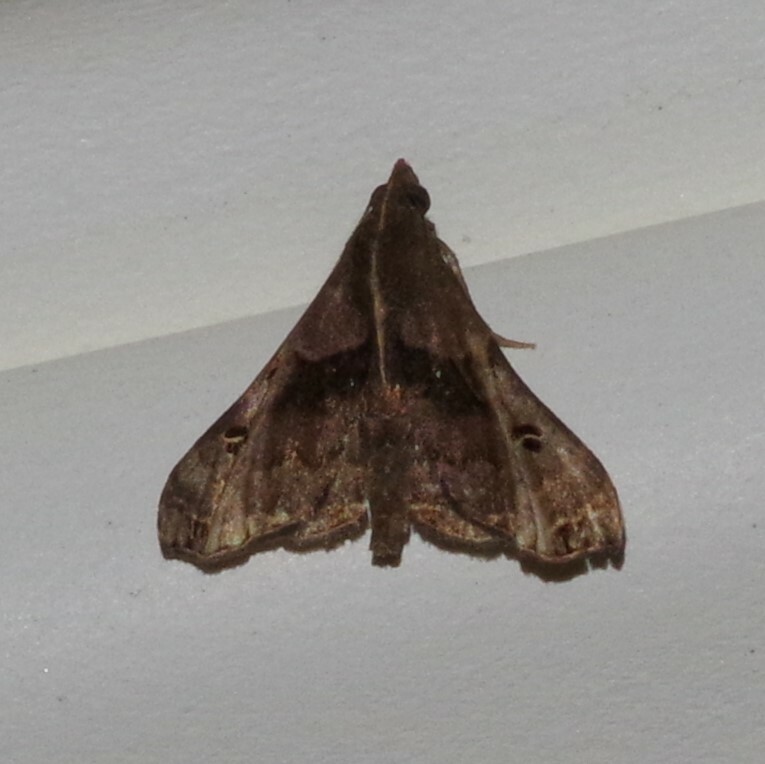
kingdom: Animalia
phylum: Arthropoda
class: Insecta
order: Lepidoptera
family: Erebidae
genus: Palthis
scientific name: Palthis asopialis
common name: Faint-spotted palthis moth
